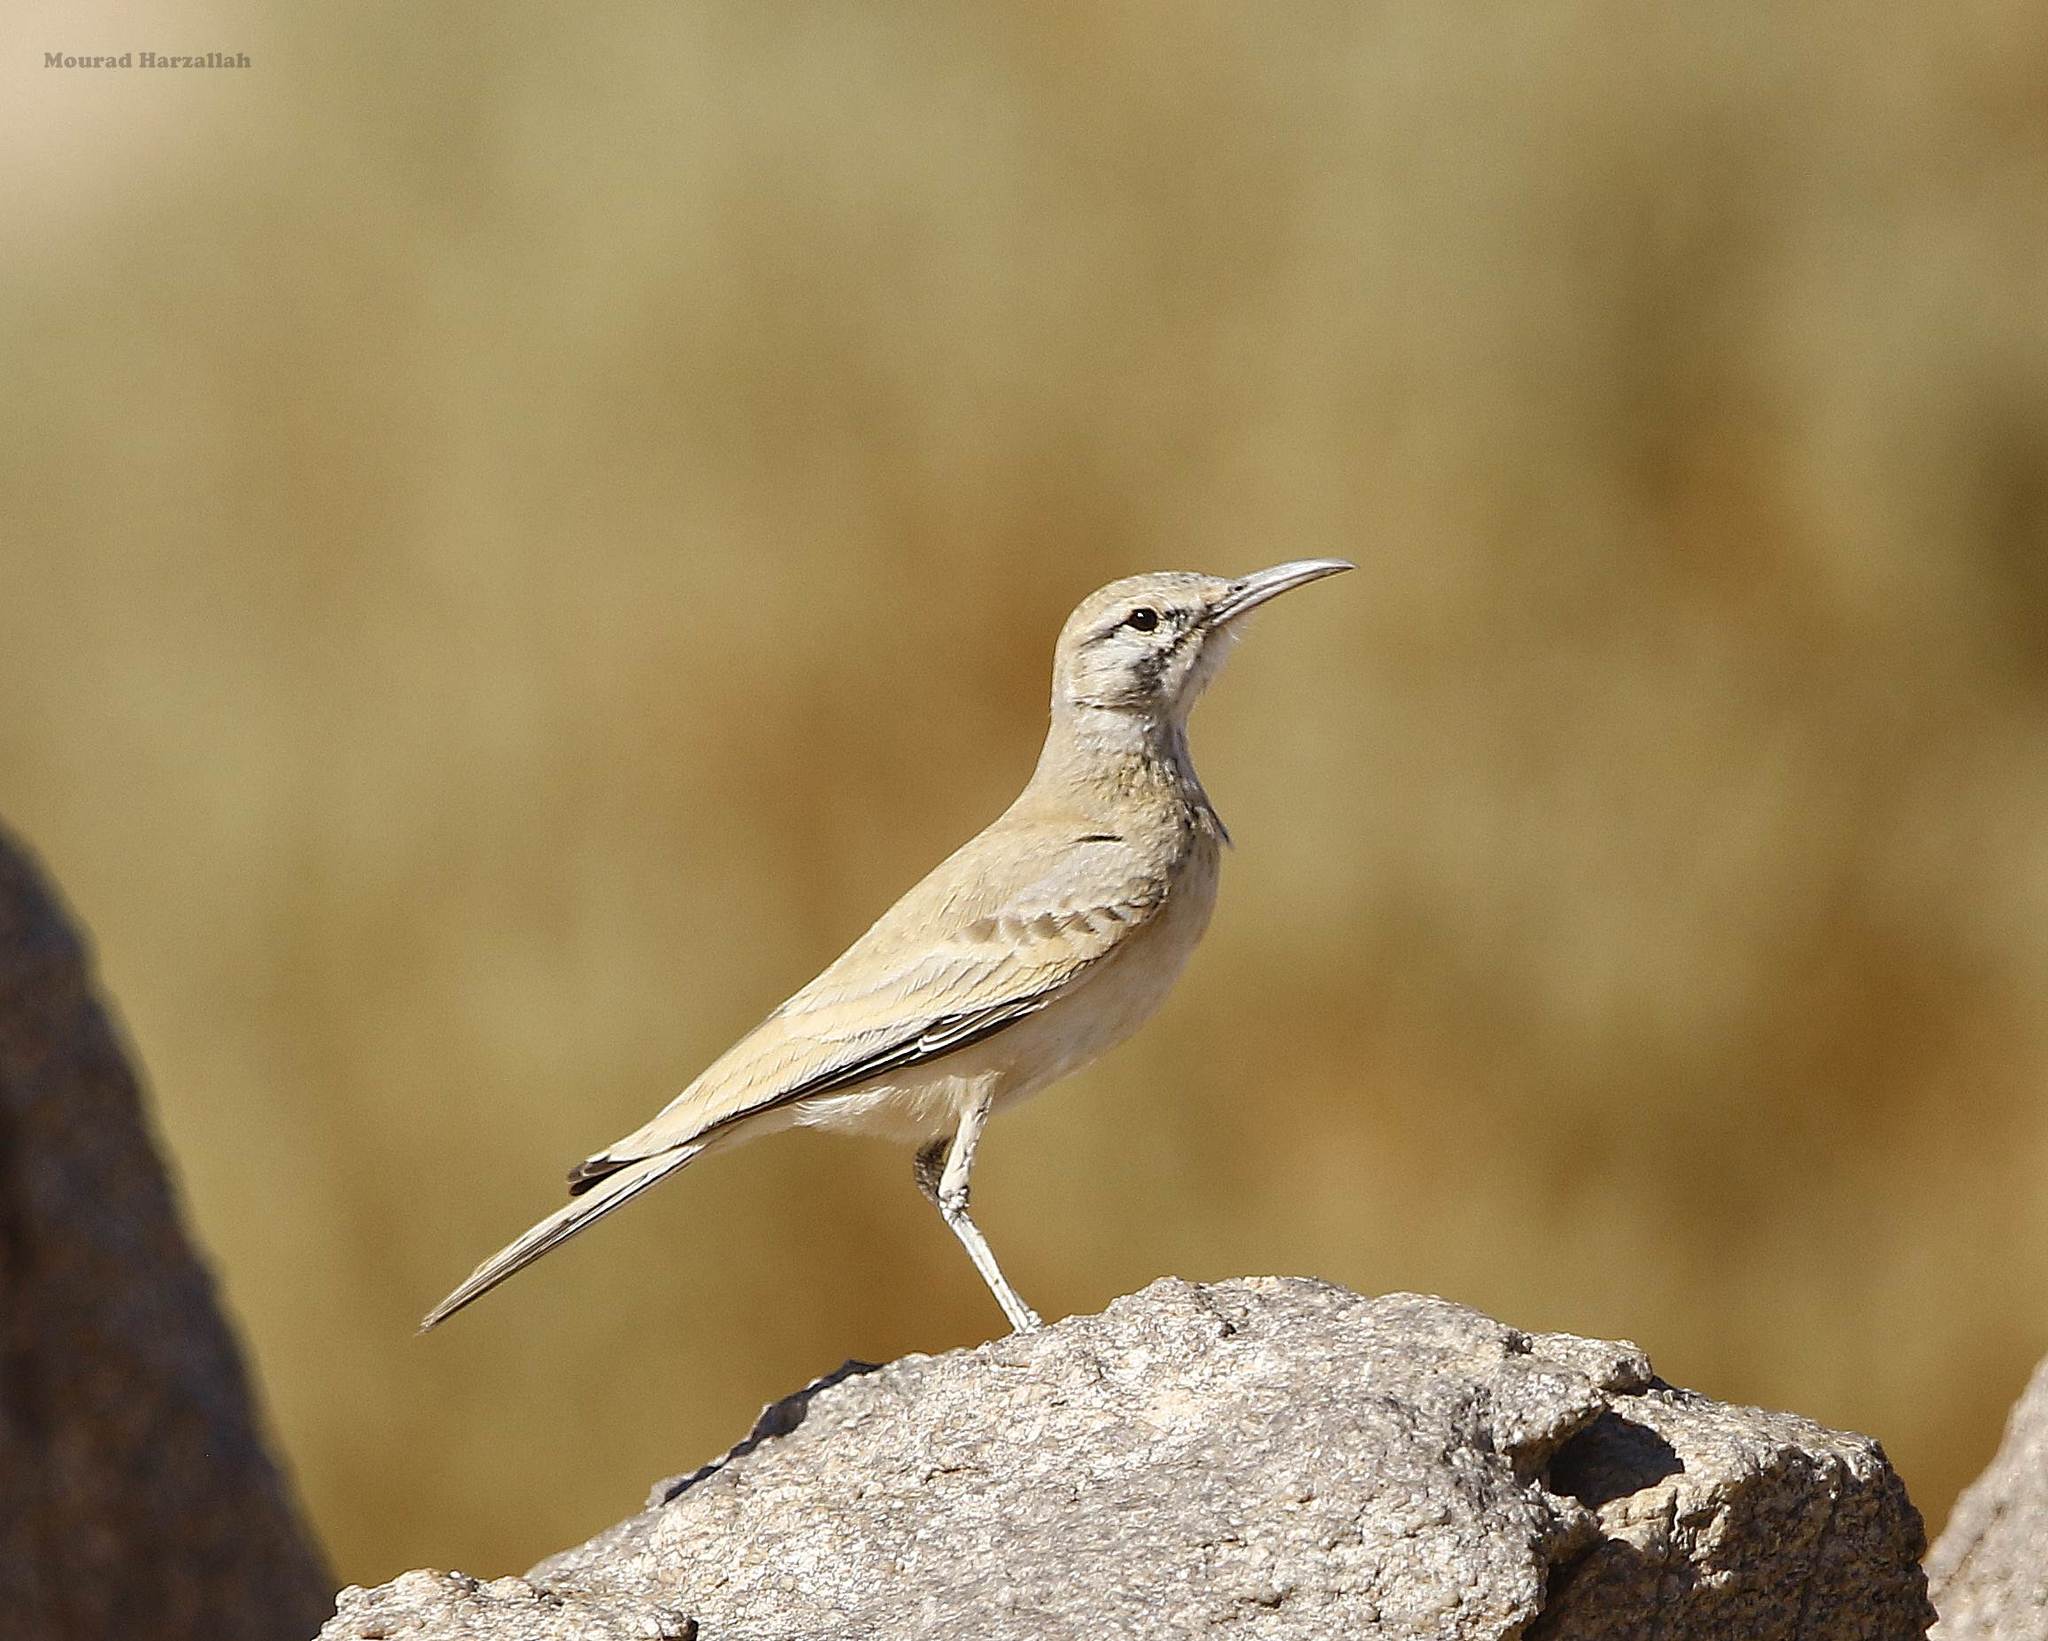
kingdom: Animalia
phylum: Chordata
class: Aves
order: Passeriformes
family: Alaudidae
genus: Alaemon
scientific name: Alaemon alaudipes
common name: Greater hoopoe-lark
